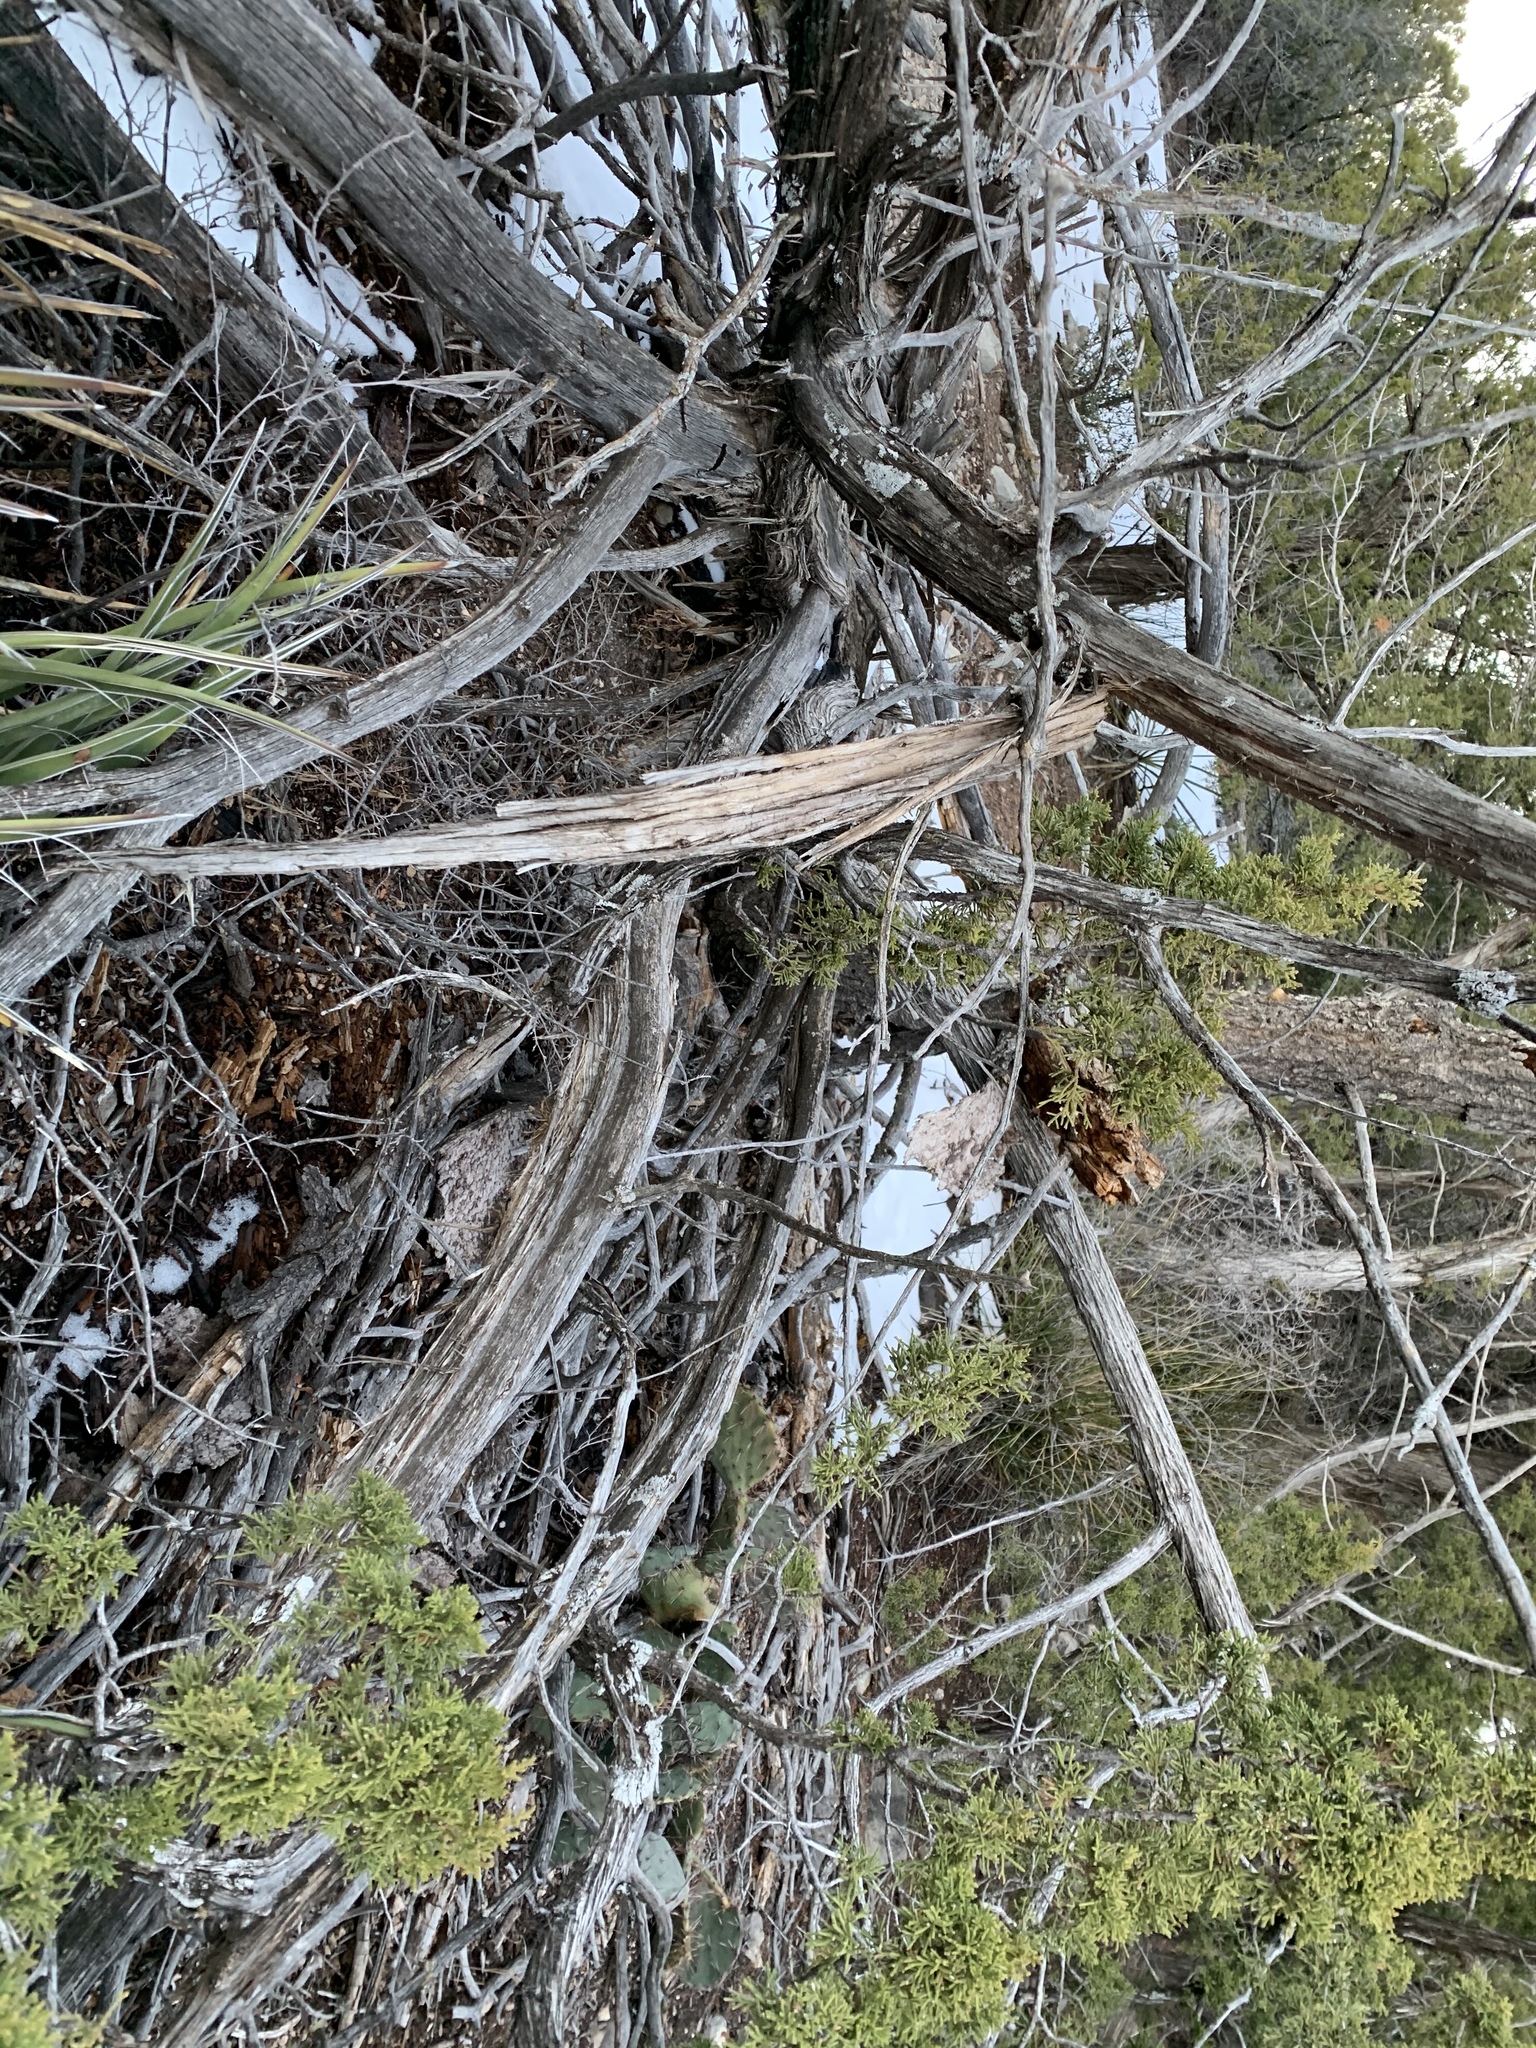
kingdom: Plantae
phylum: Tracheophyta
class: Pinopsida
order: Pinales
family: Cupressaceae
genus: Juniperus
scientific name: Juniperus monosperma
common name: One-seed juniper
